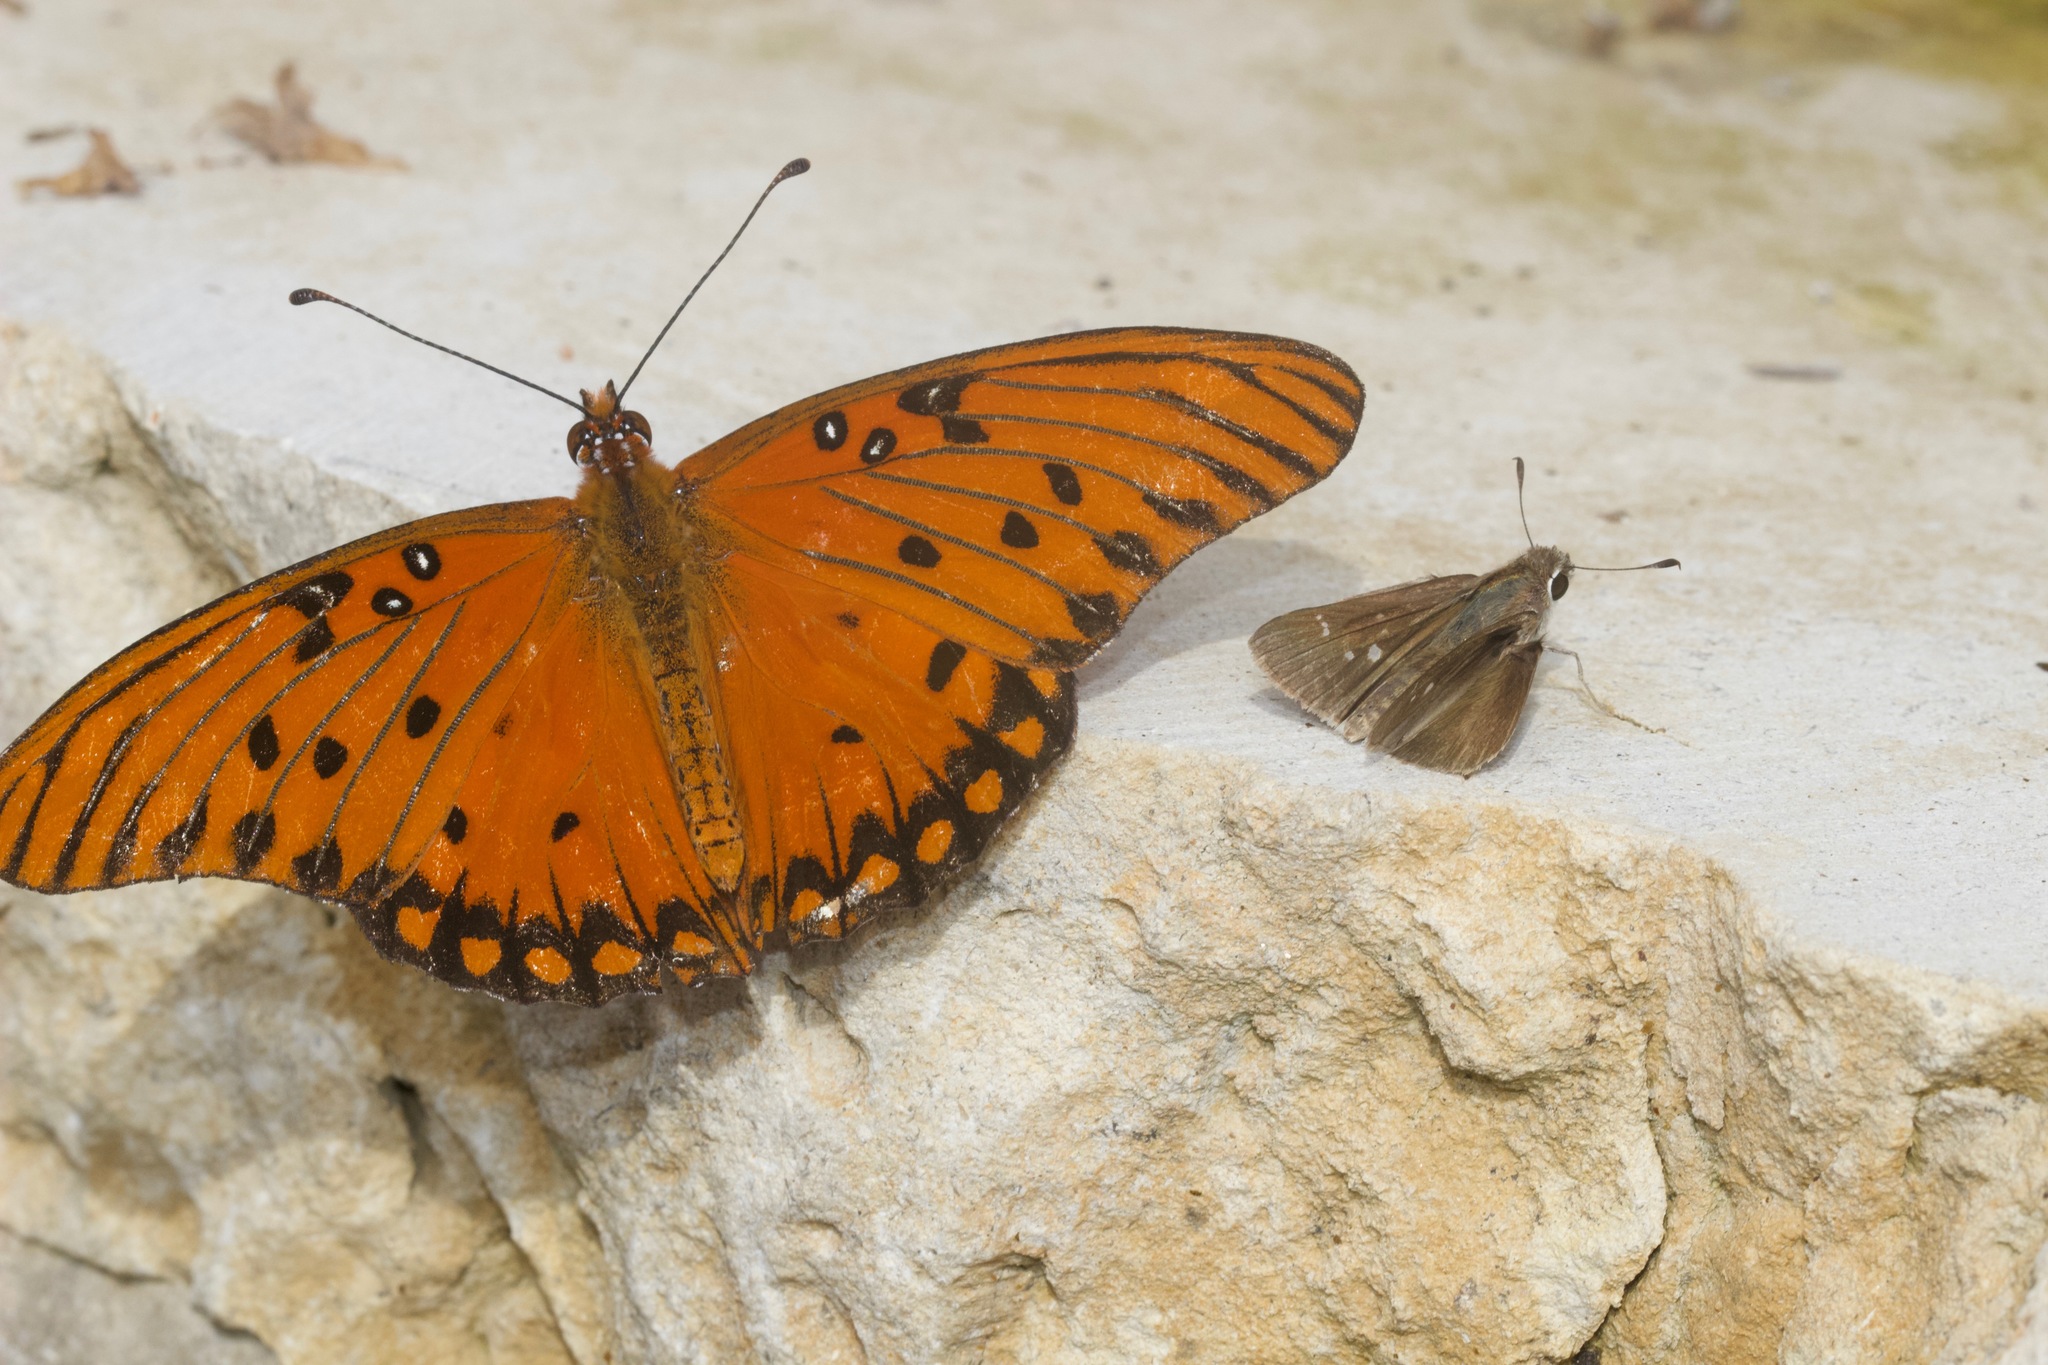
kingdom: Animalia
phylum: Arthropoda
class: Insecta
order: Lepidoptera
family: Nymphalidae
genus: Dione
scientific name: Dione vanillae
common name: Gulf fritillary
